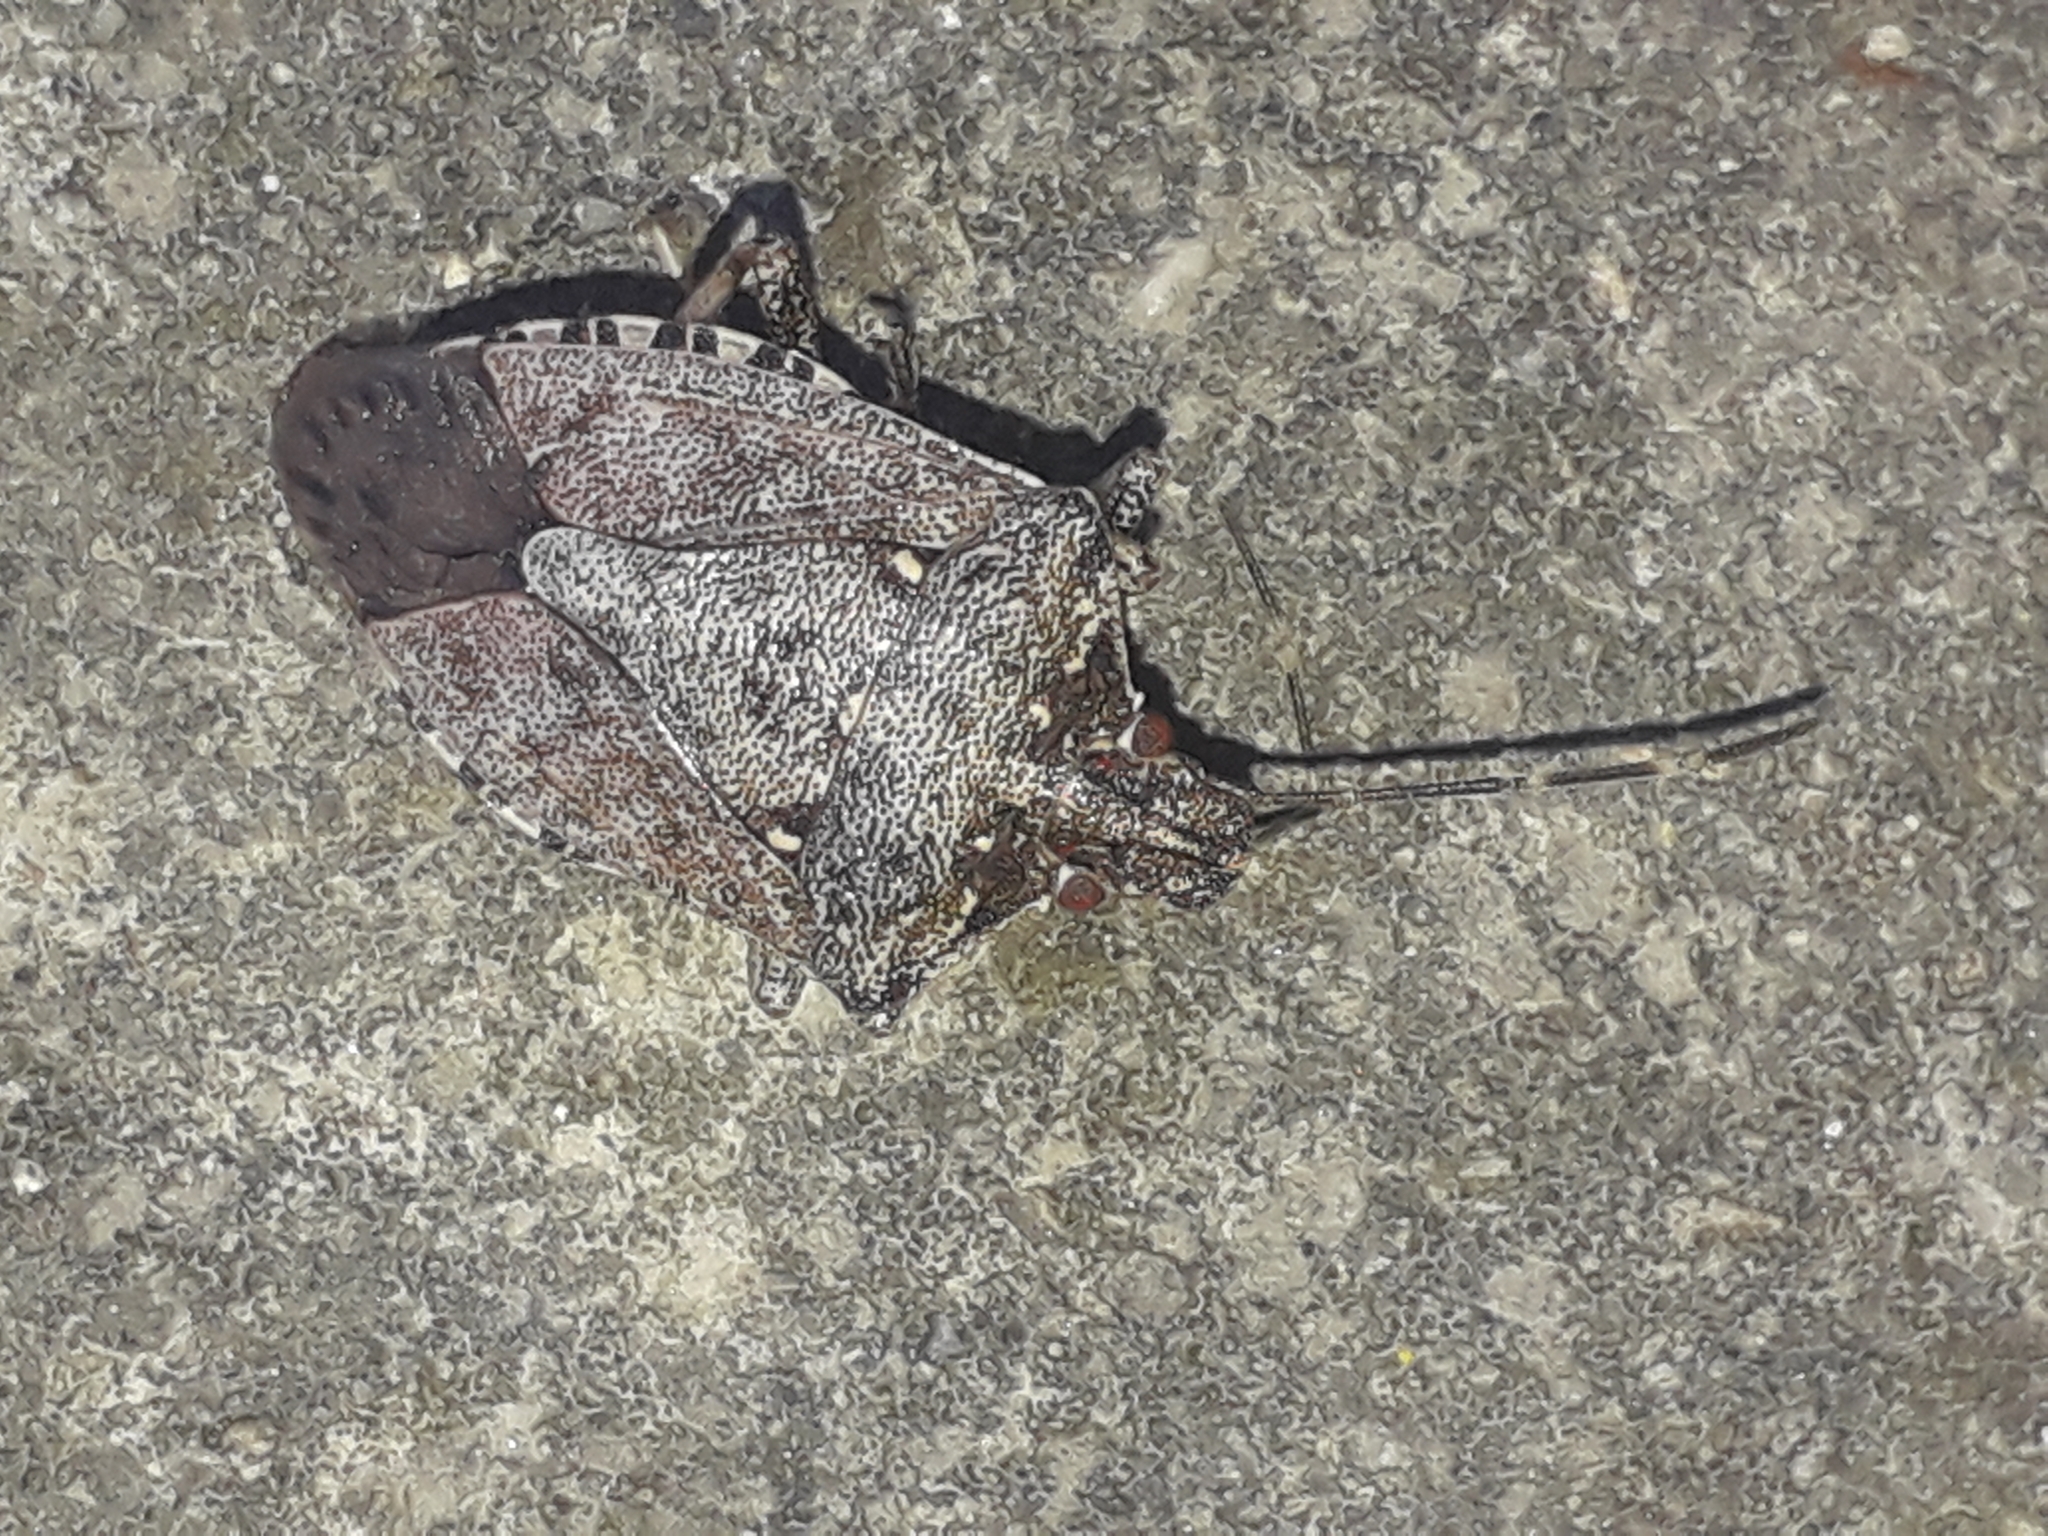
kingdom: Animalia
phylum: Arthropoda
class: Insecta
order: Hemiptera
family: Pentatomidae
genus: Halyomorpha
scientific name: Halyomorpha halys
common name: Brown marmorated stink bug
